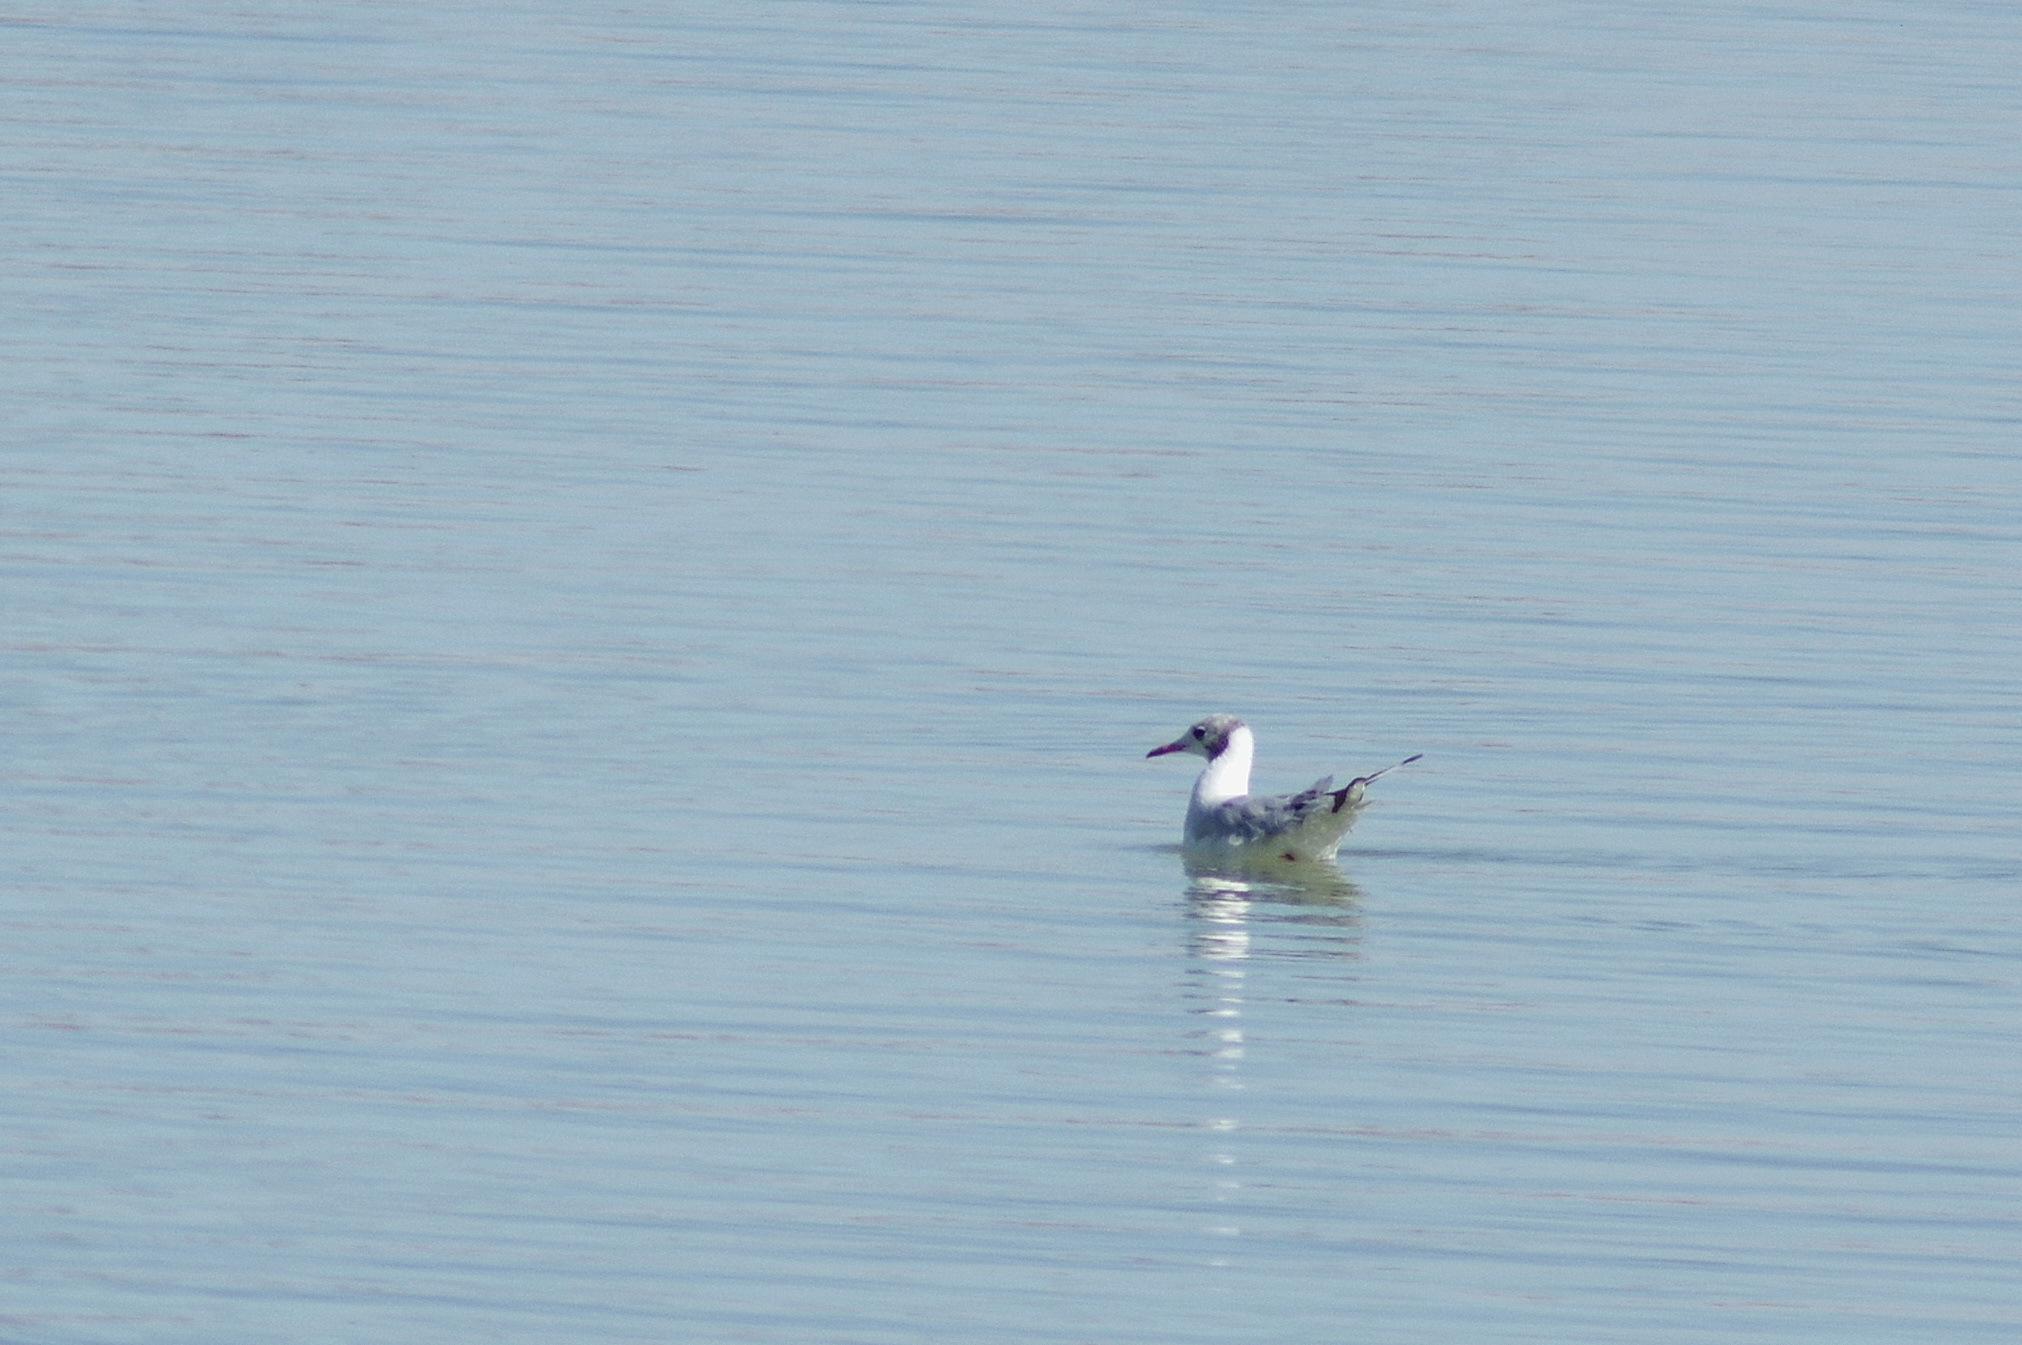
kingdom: Animalia
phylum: Chordata
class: Aves
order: Charadriiformes
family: Laridae
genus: Chroicocephalus
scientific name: Chroicocephalus ridibundus
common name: Black-headed gull
